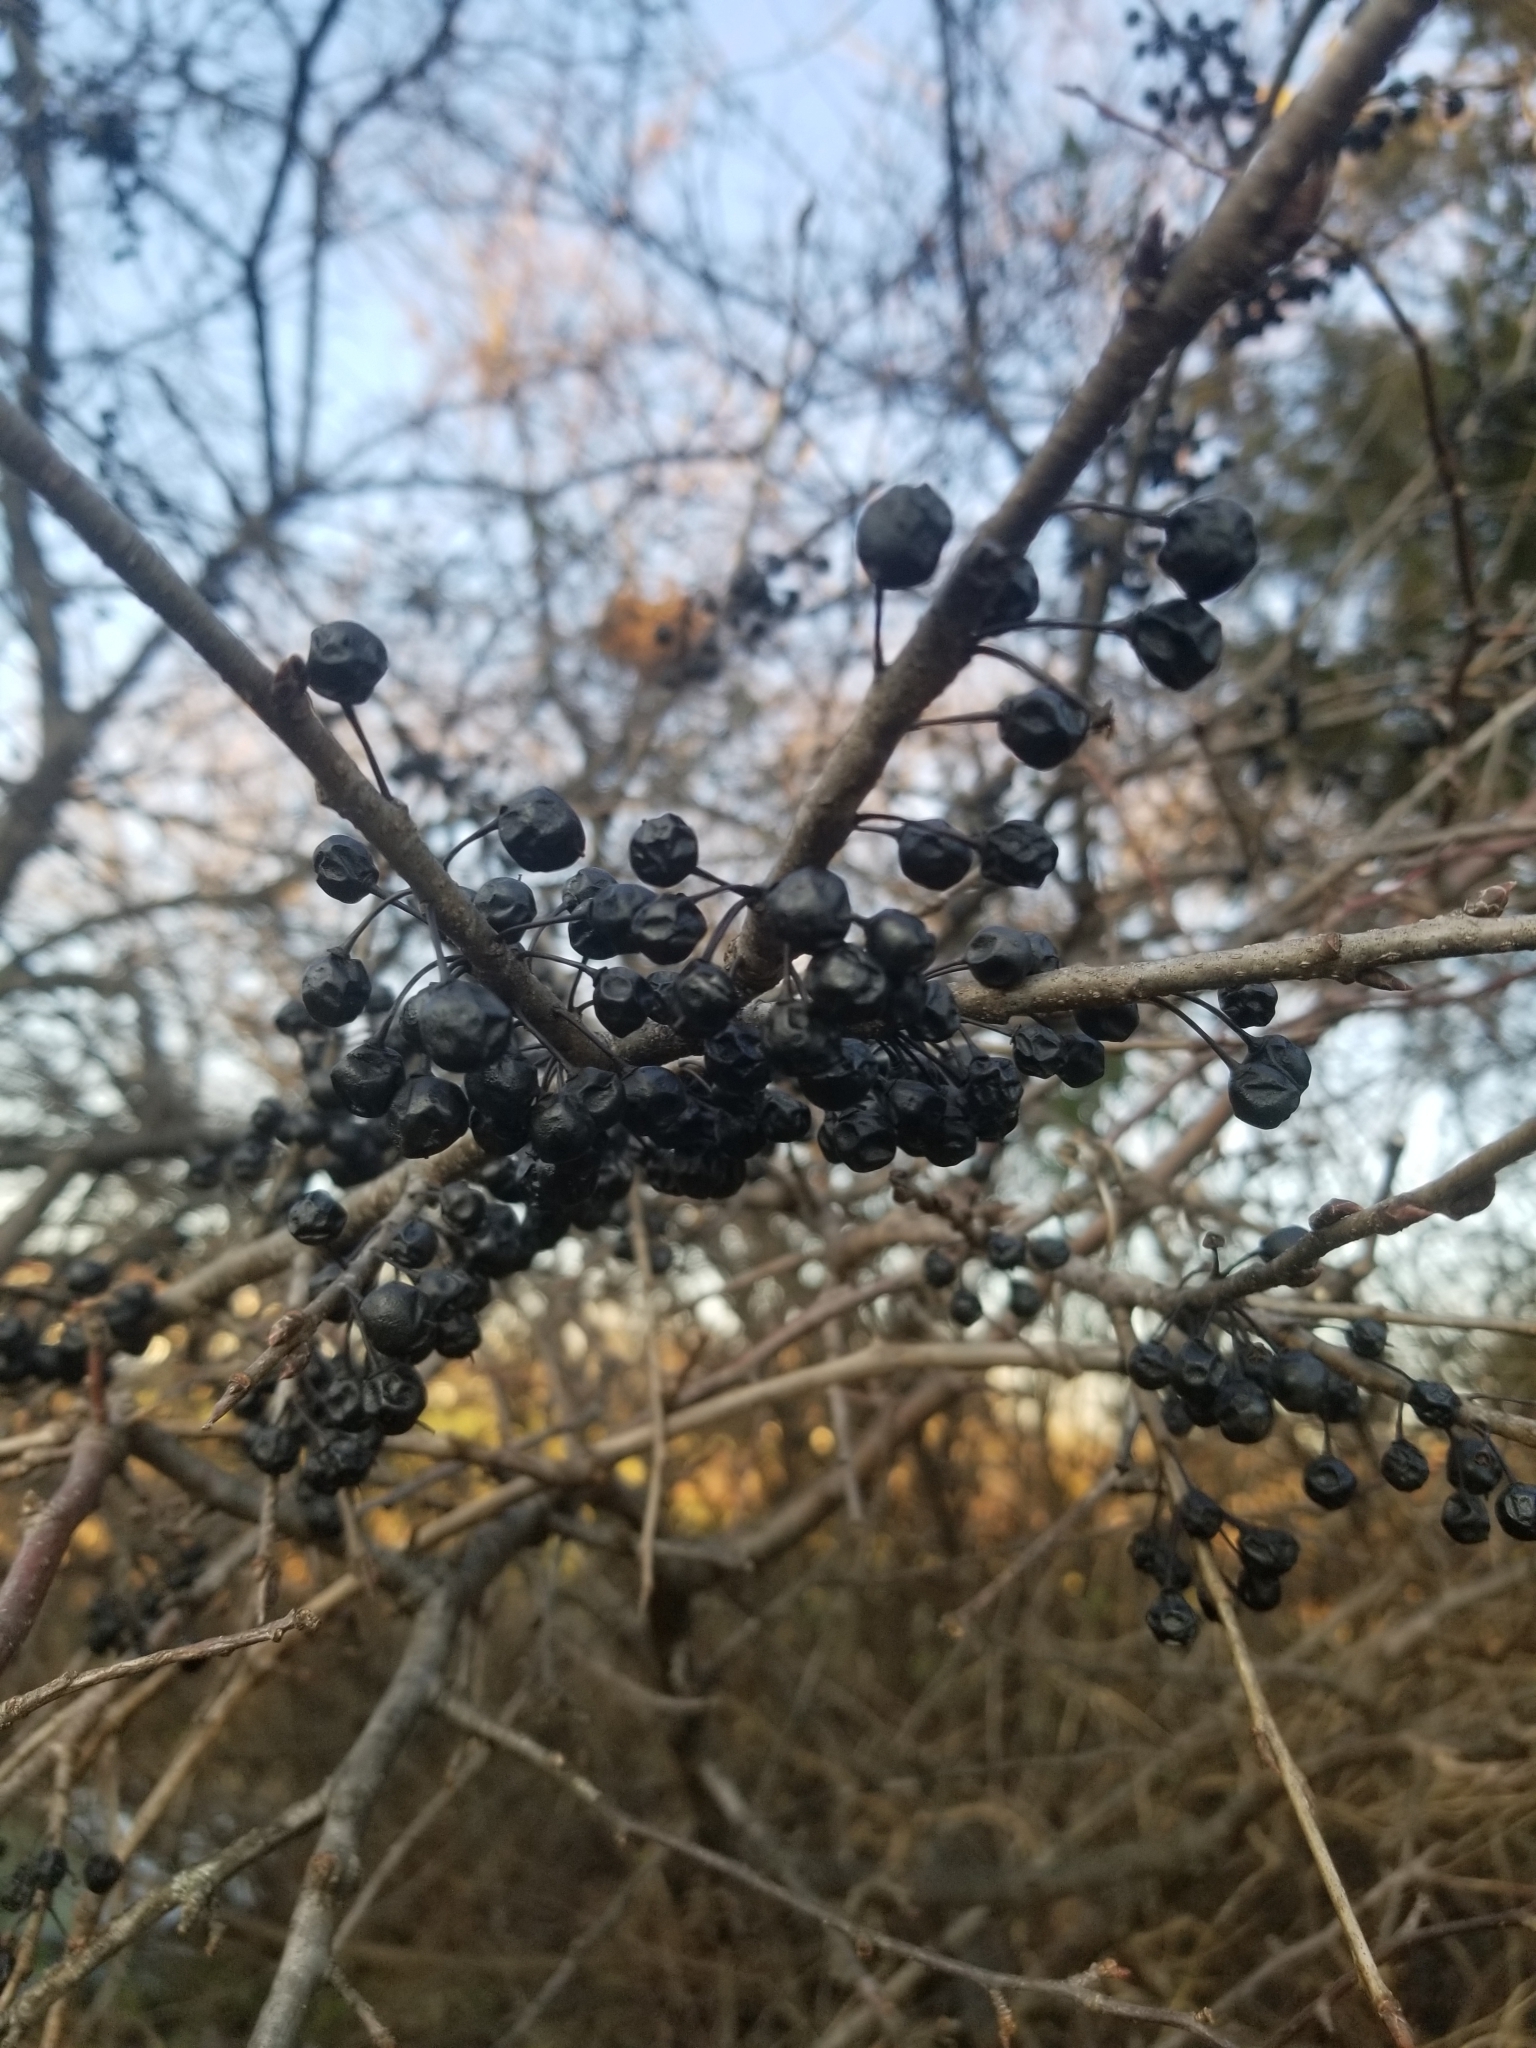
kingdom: Plantae
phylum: Tracheophyta
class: Magnoliopsida
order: Rosales
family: Rhamnaceae
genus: Rhamnus
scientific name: Rhamnus cathartica
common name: Common buckthorn
